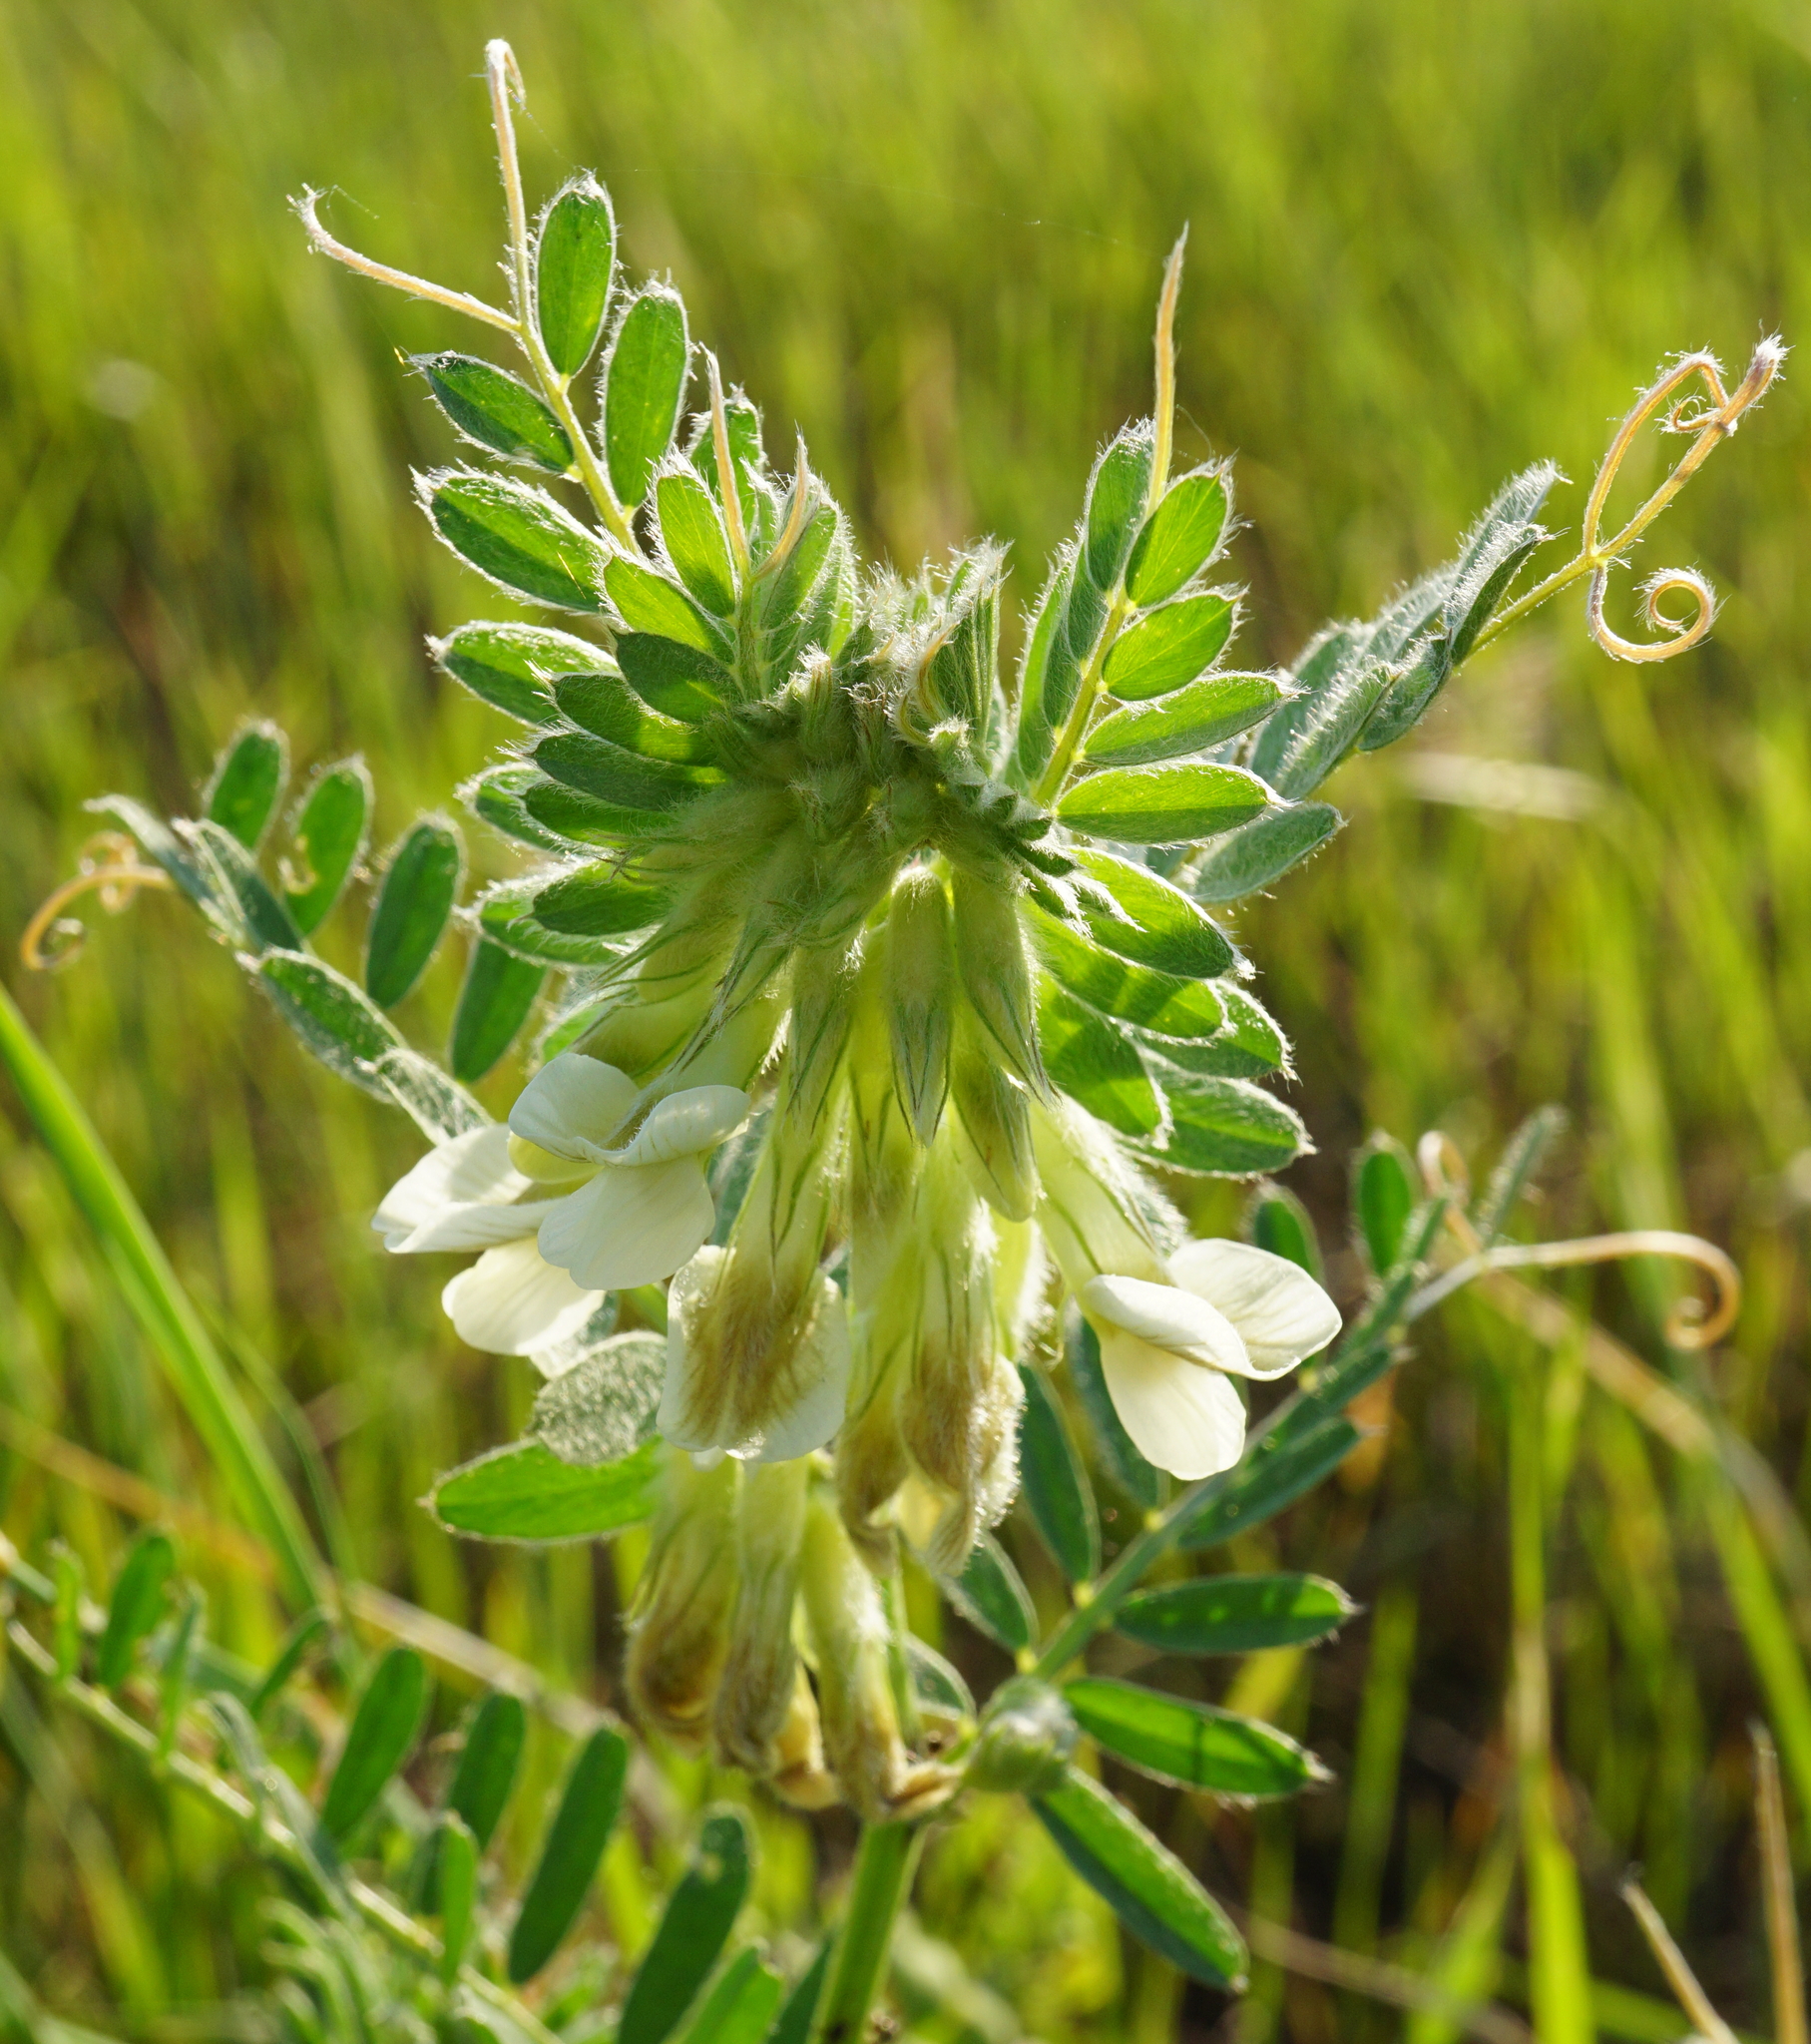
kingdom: Plantae
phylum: Tracheophyta
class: Magnoliopsida
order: Fabales
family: Fabaceae
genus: Vicia
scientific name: Vicia pannonica
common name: Hungarian vetch
